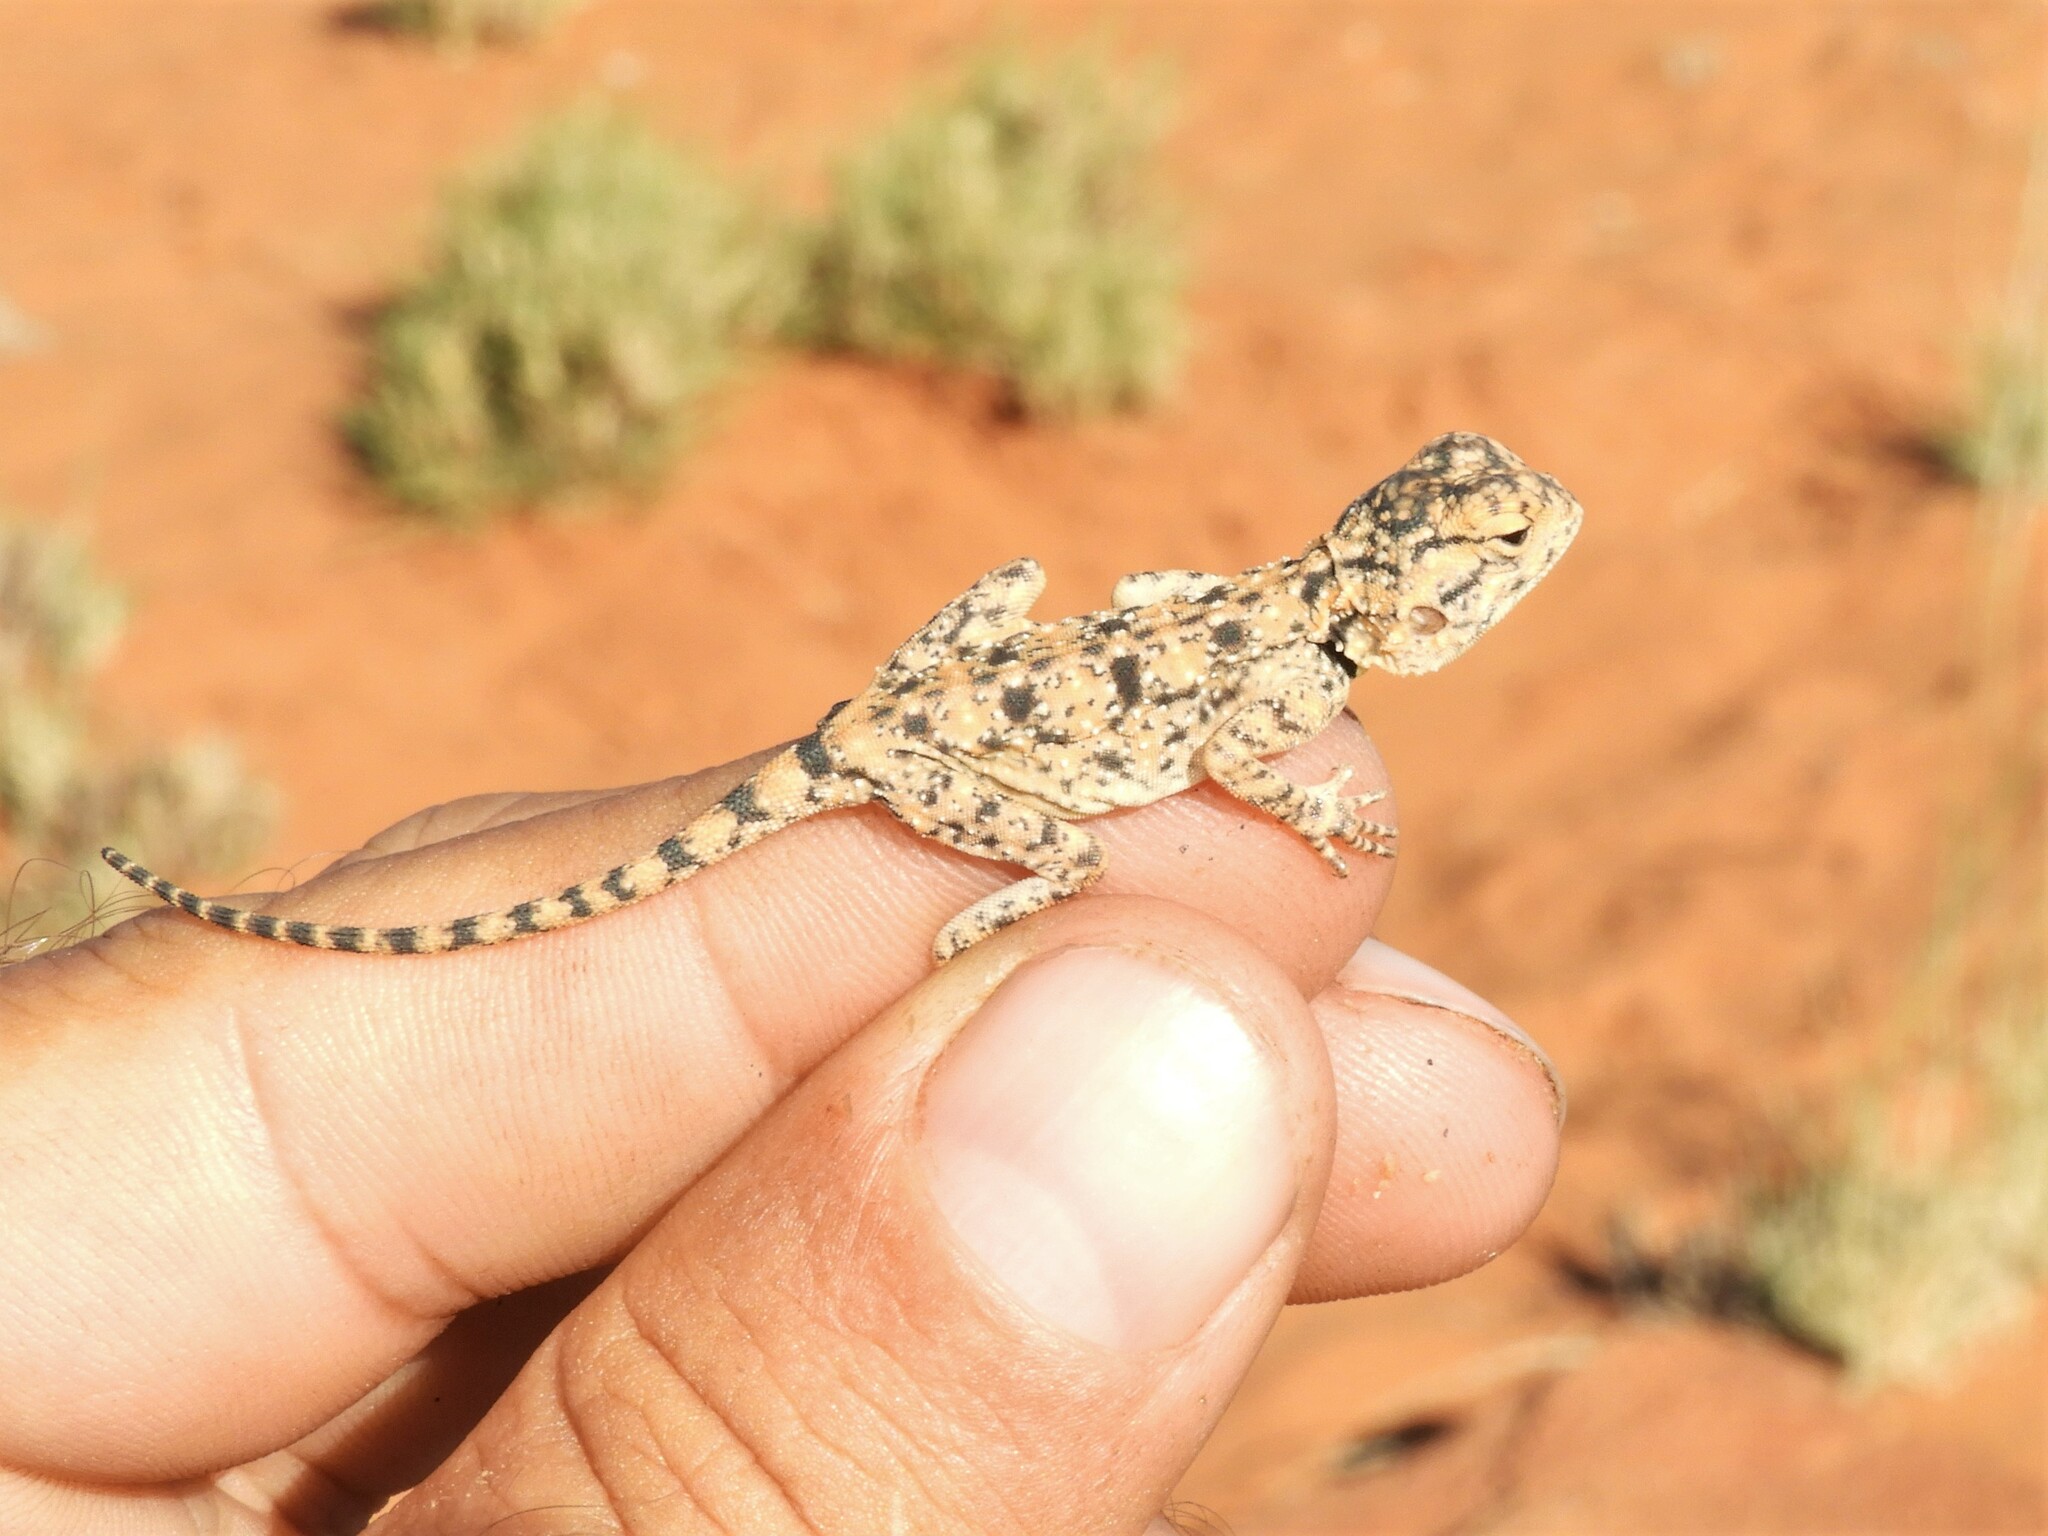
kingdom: Animalia
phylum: Chordata
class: Squamata
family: Agamidae
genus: Agama
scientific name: Agama atra
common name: Southern african rock agama
